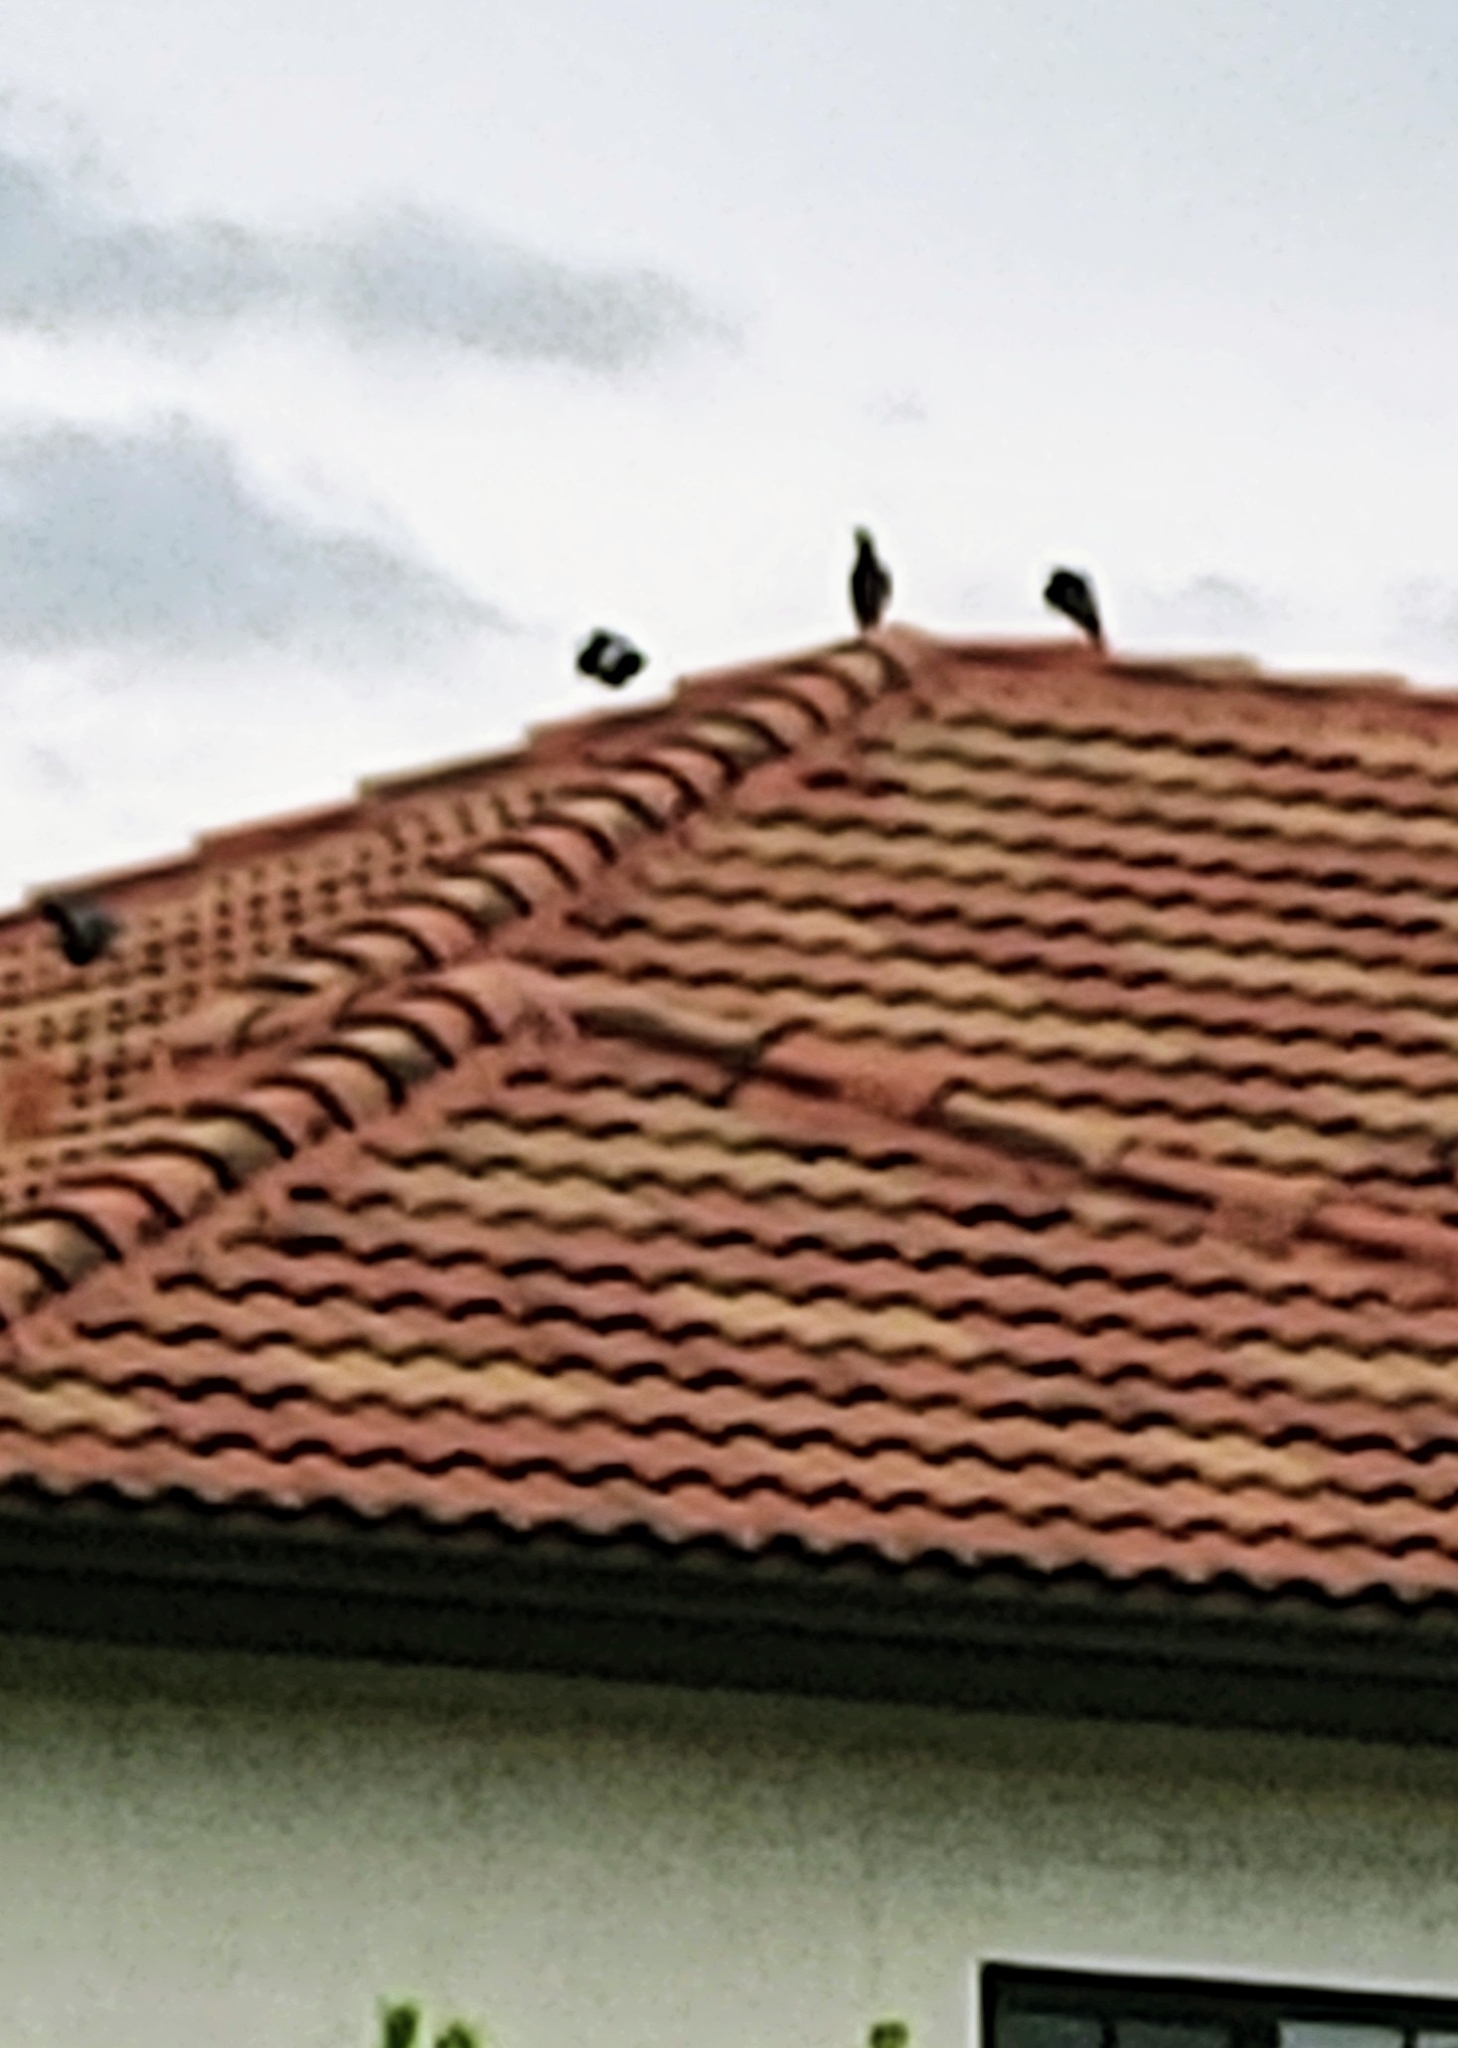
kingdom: Animalia
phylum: Chordata
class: Aves
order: Columbiformes
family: Columbidae
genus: Columba
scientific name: Columba livia
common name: Rock pigeon
